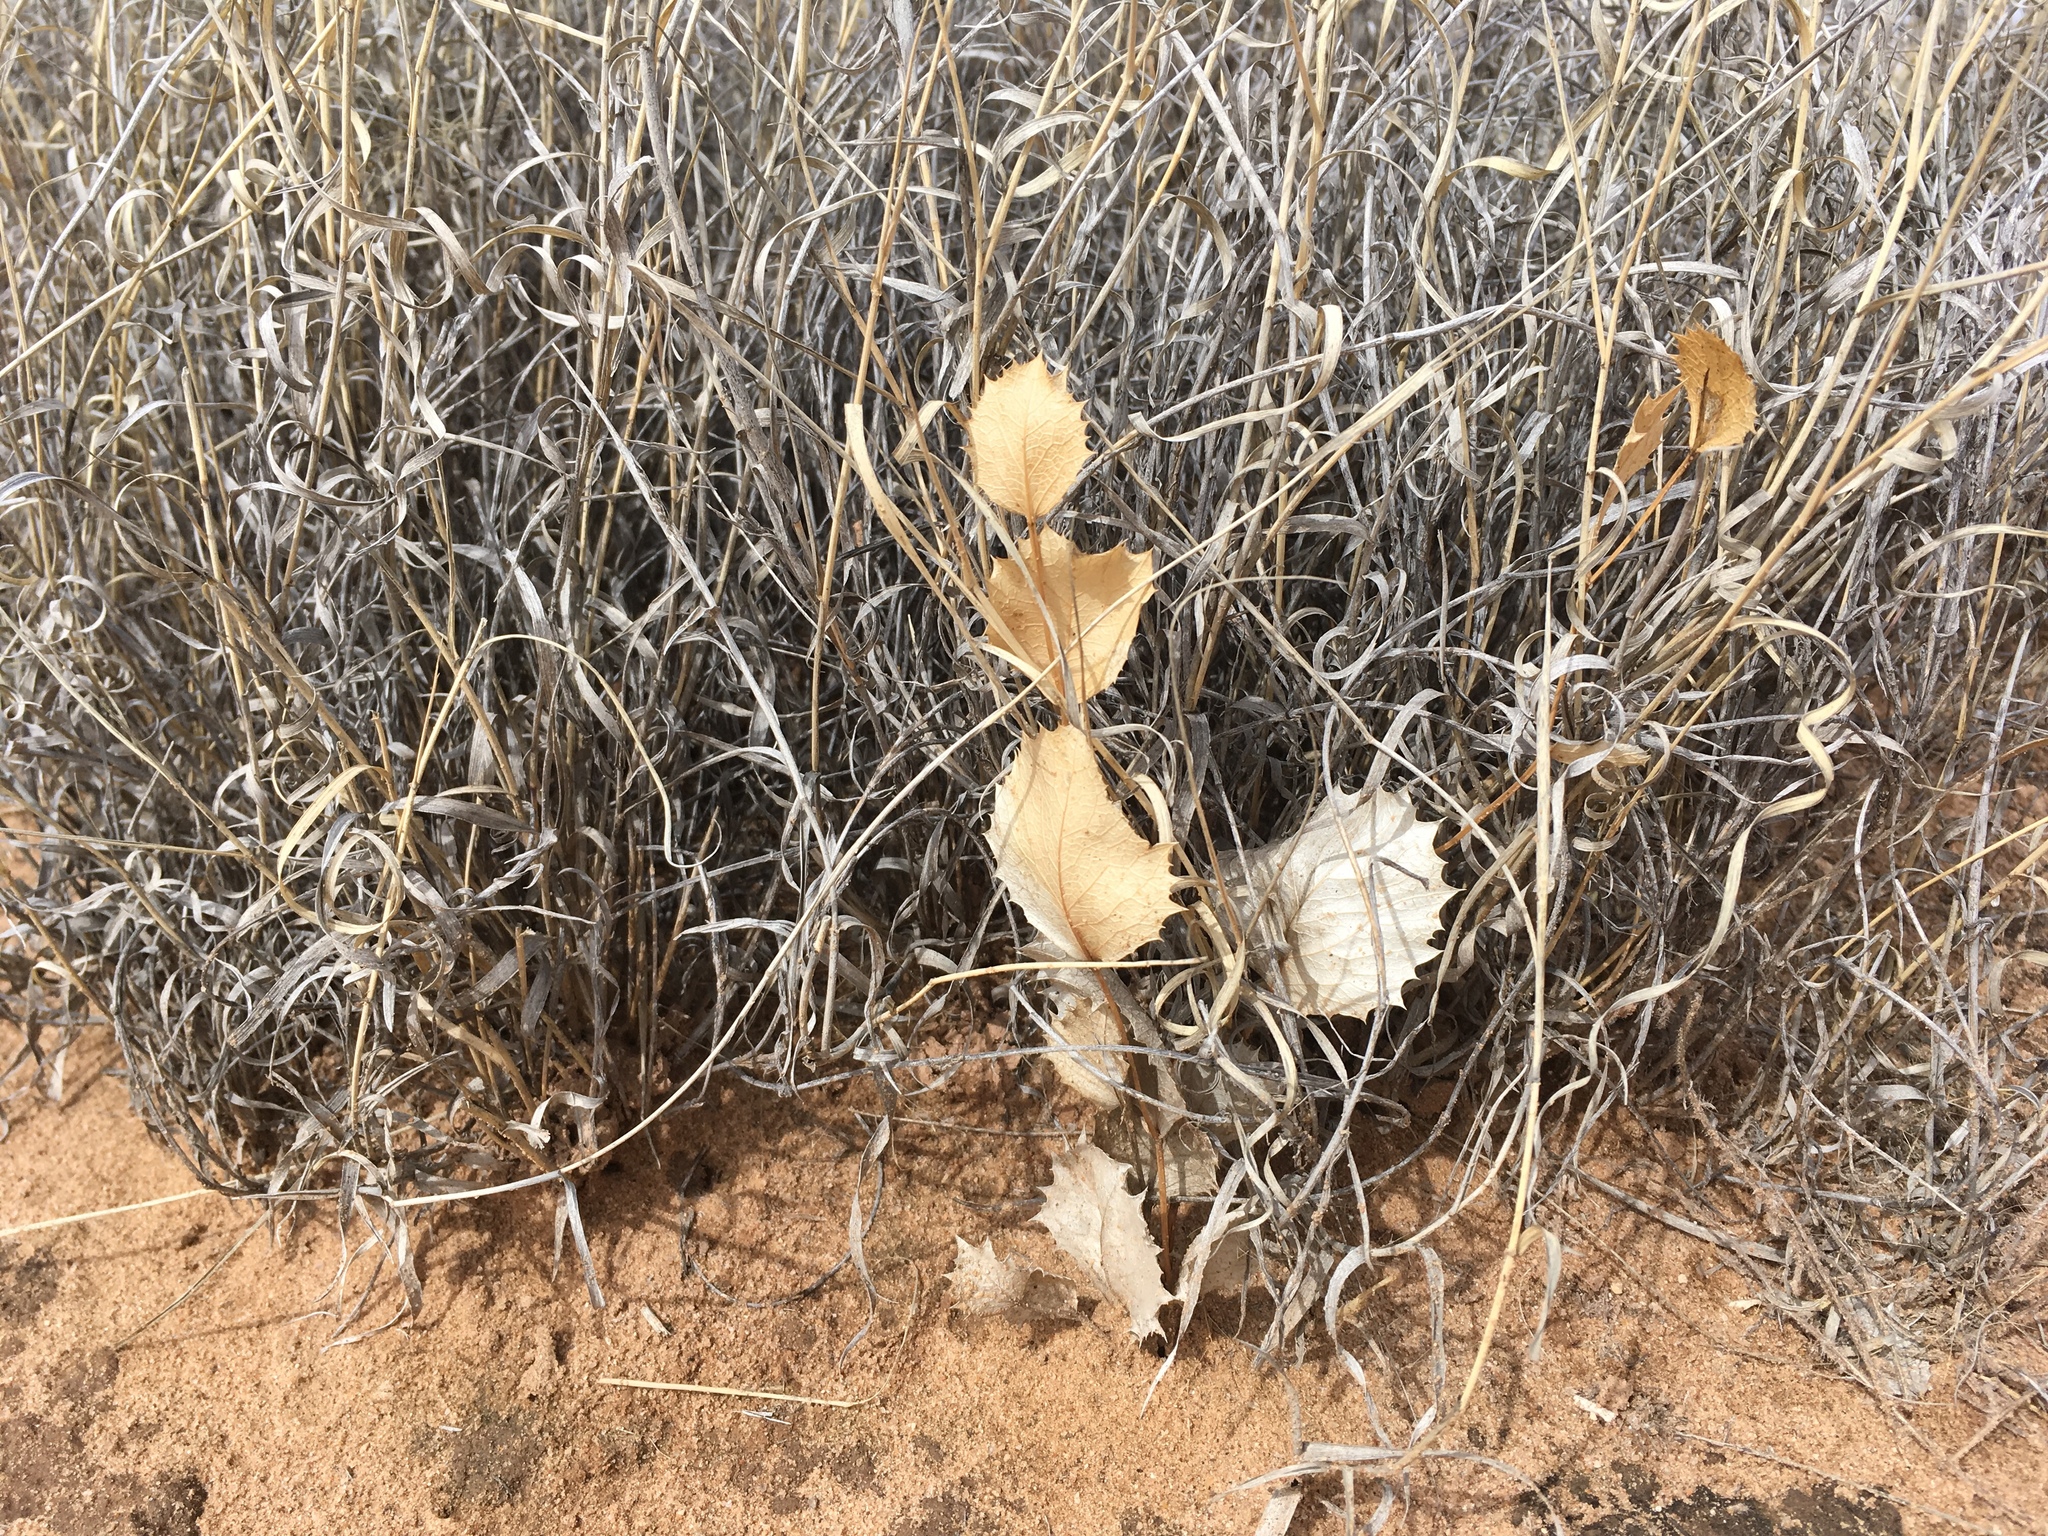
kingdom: Plantae
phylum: Tracheophyta
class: Magnoliopsida
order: Asterales
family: Asteraceae
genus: Acourtia
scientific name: Acourtia nana
